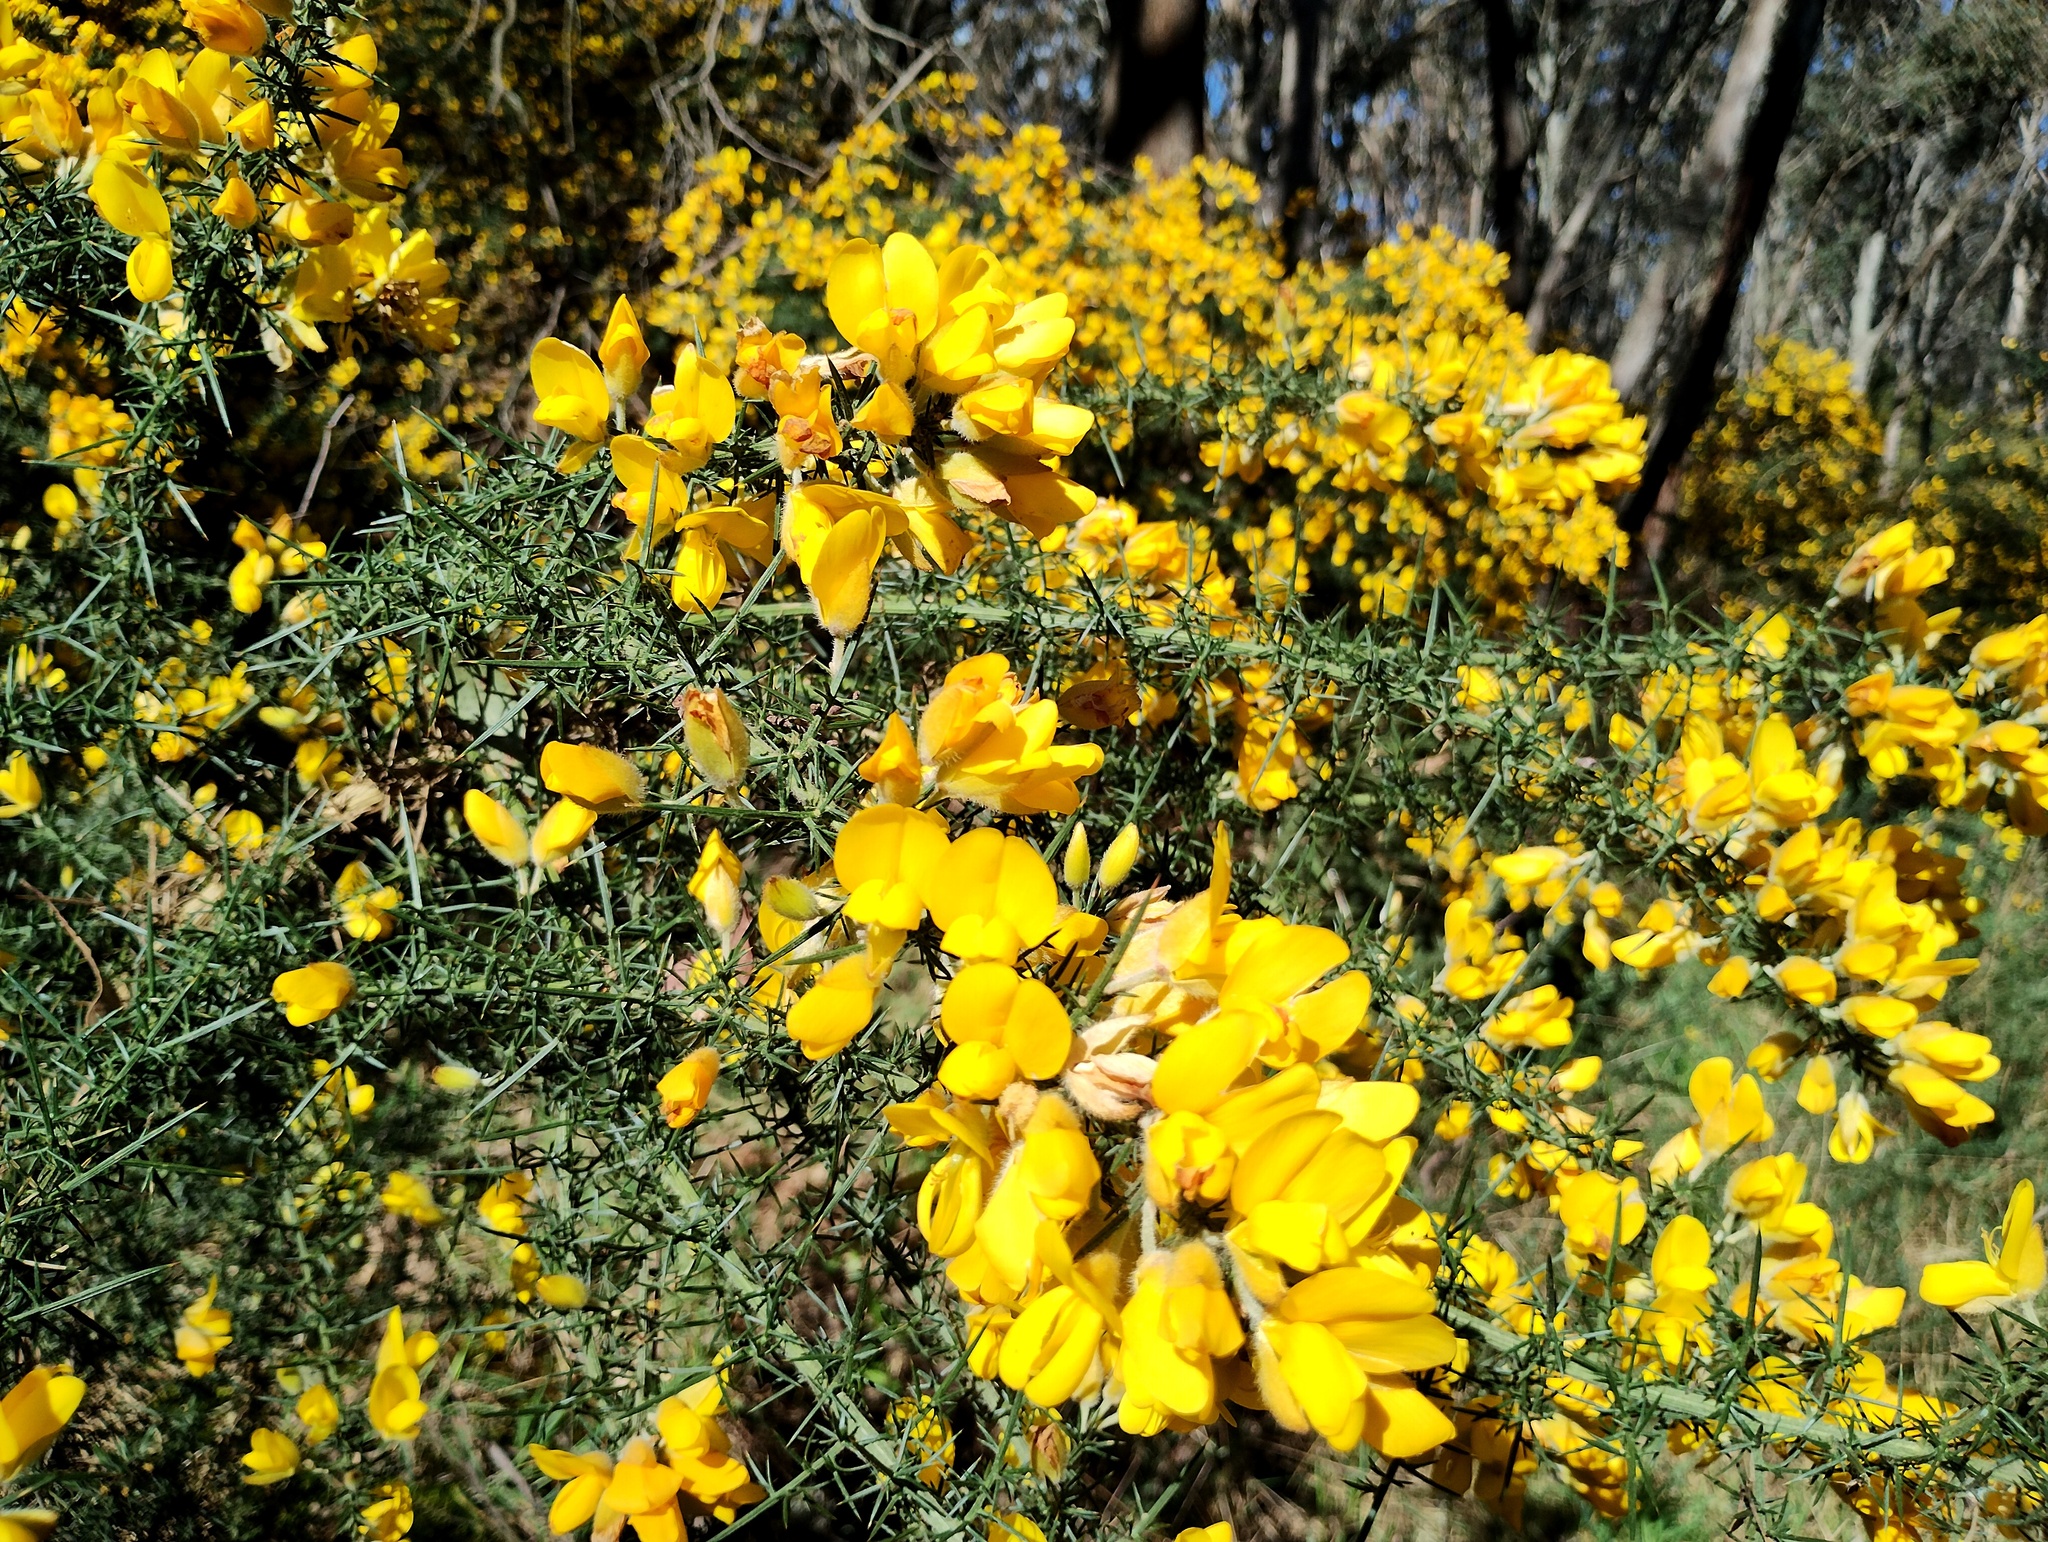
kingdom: Plantae
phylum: Tracheophyta
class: Magnoliopsida
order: Fabales
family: Fabaceae
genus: Ulex
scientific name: Ulex europaeus
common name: Common gorse
